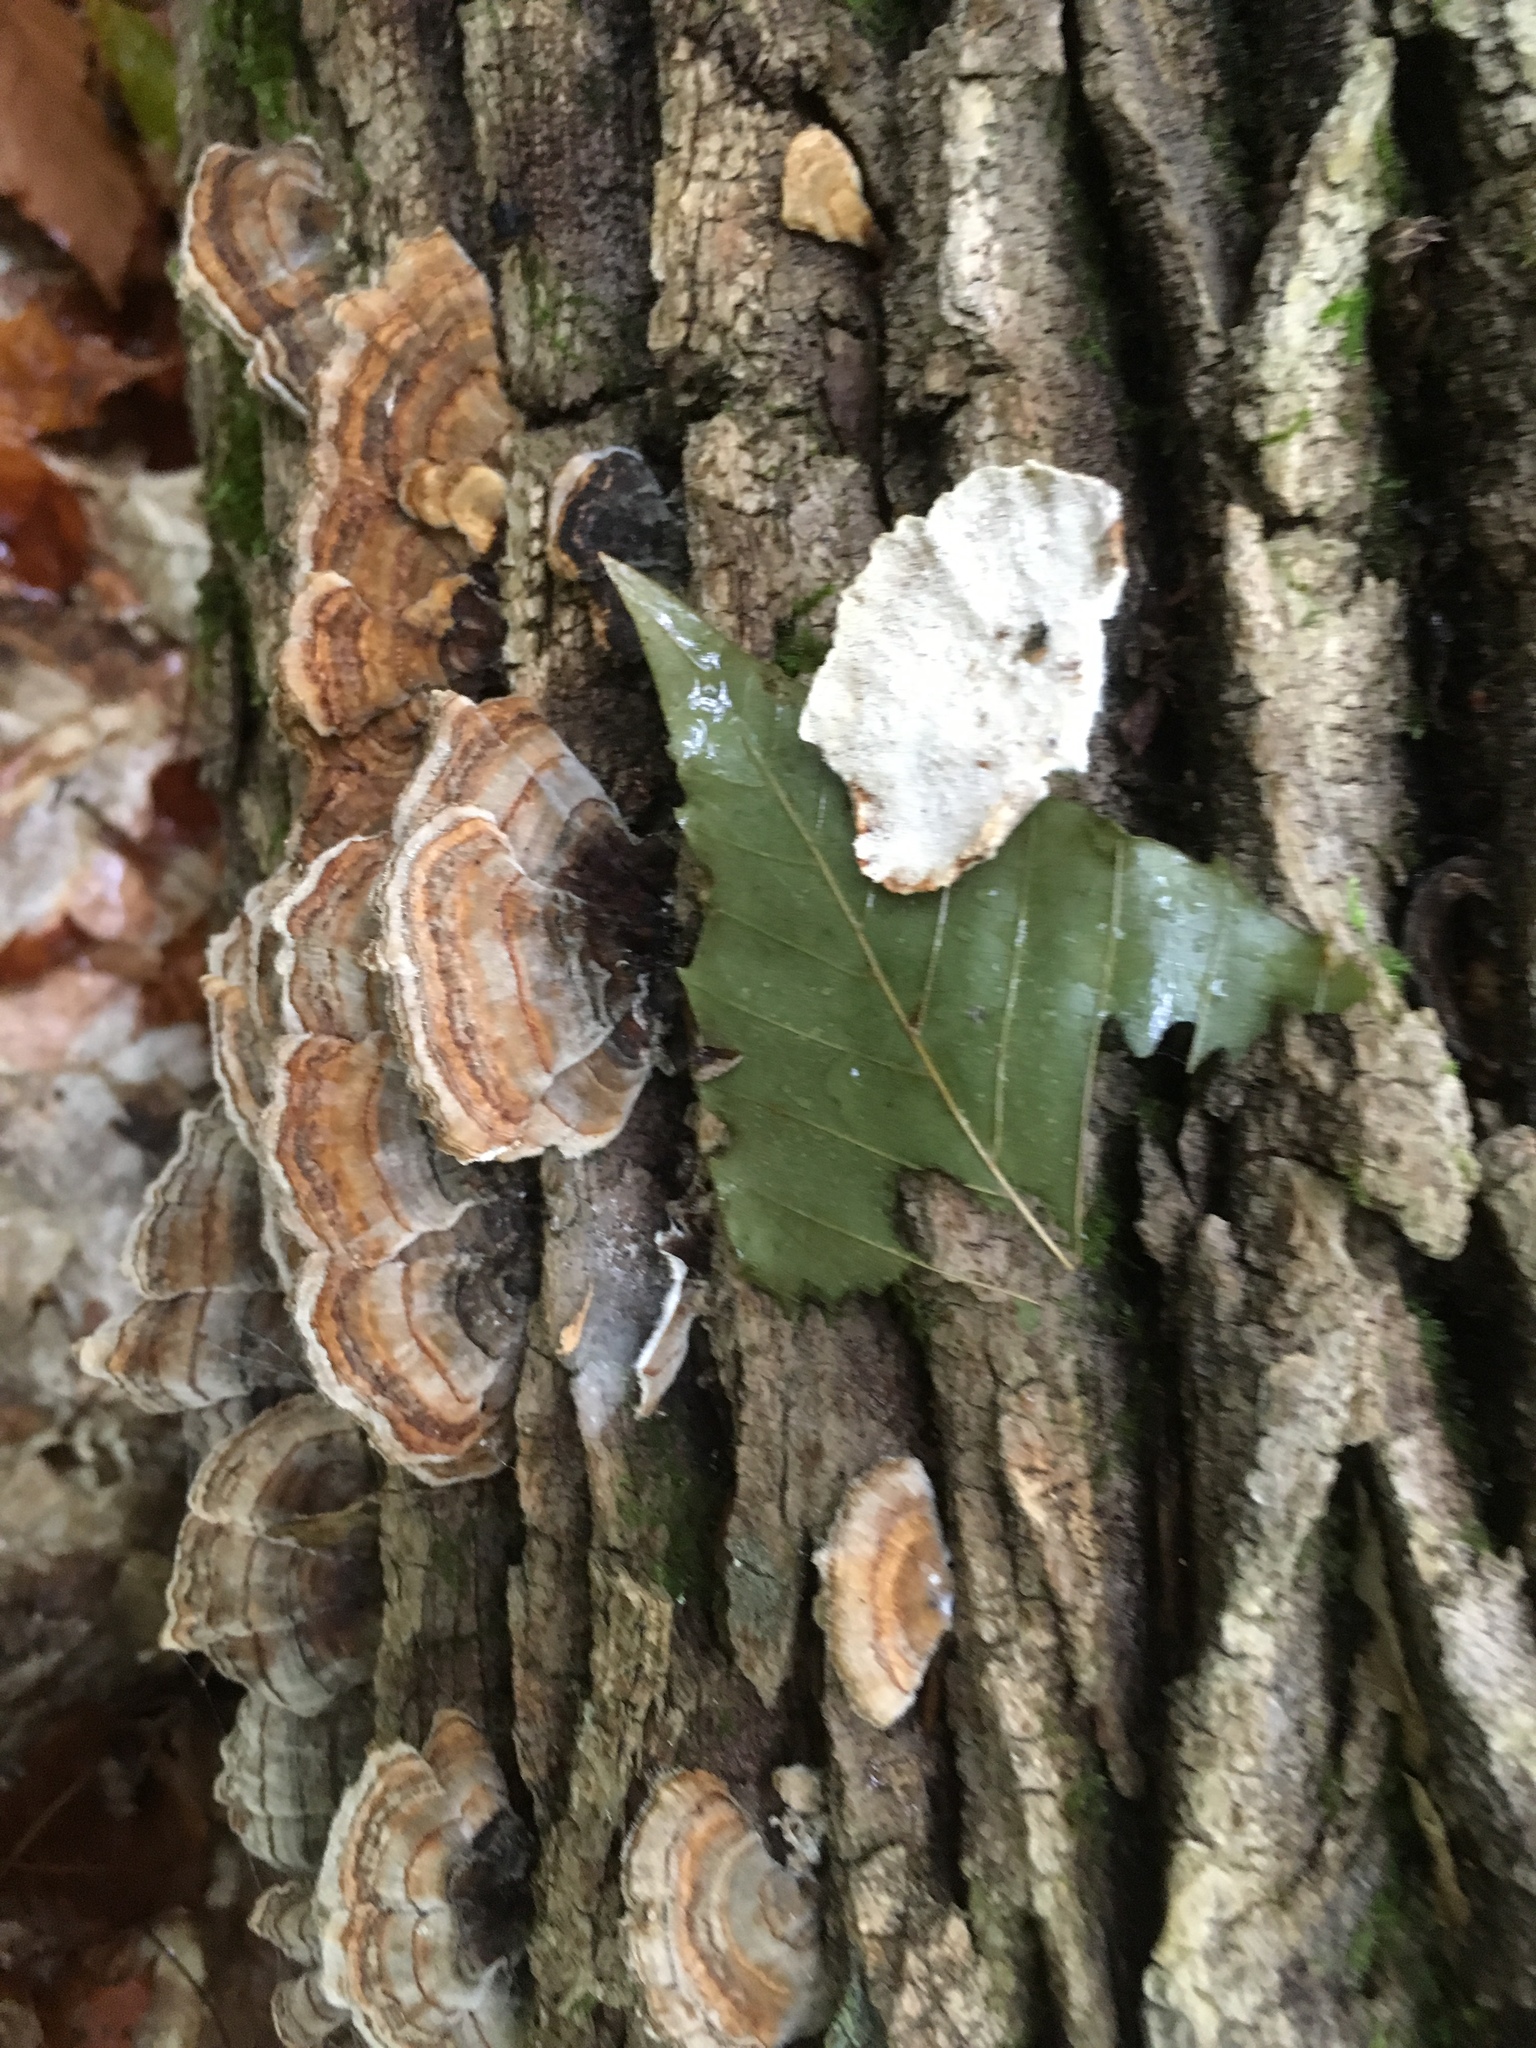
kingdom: Fungi
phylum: Basidiomycota
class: Agaricomycetes
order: Polyporales
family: Polyporaceae
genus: Trametes
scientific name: Trametes versicolor
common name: Turkeytail
